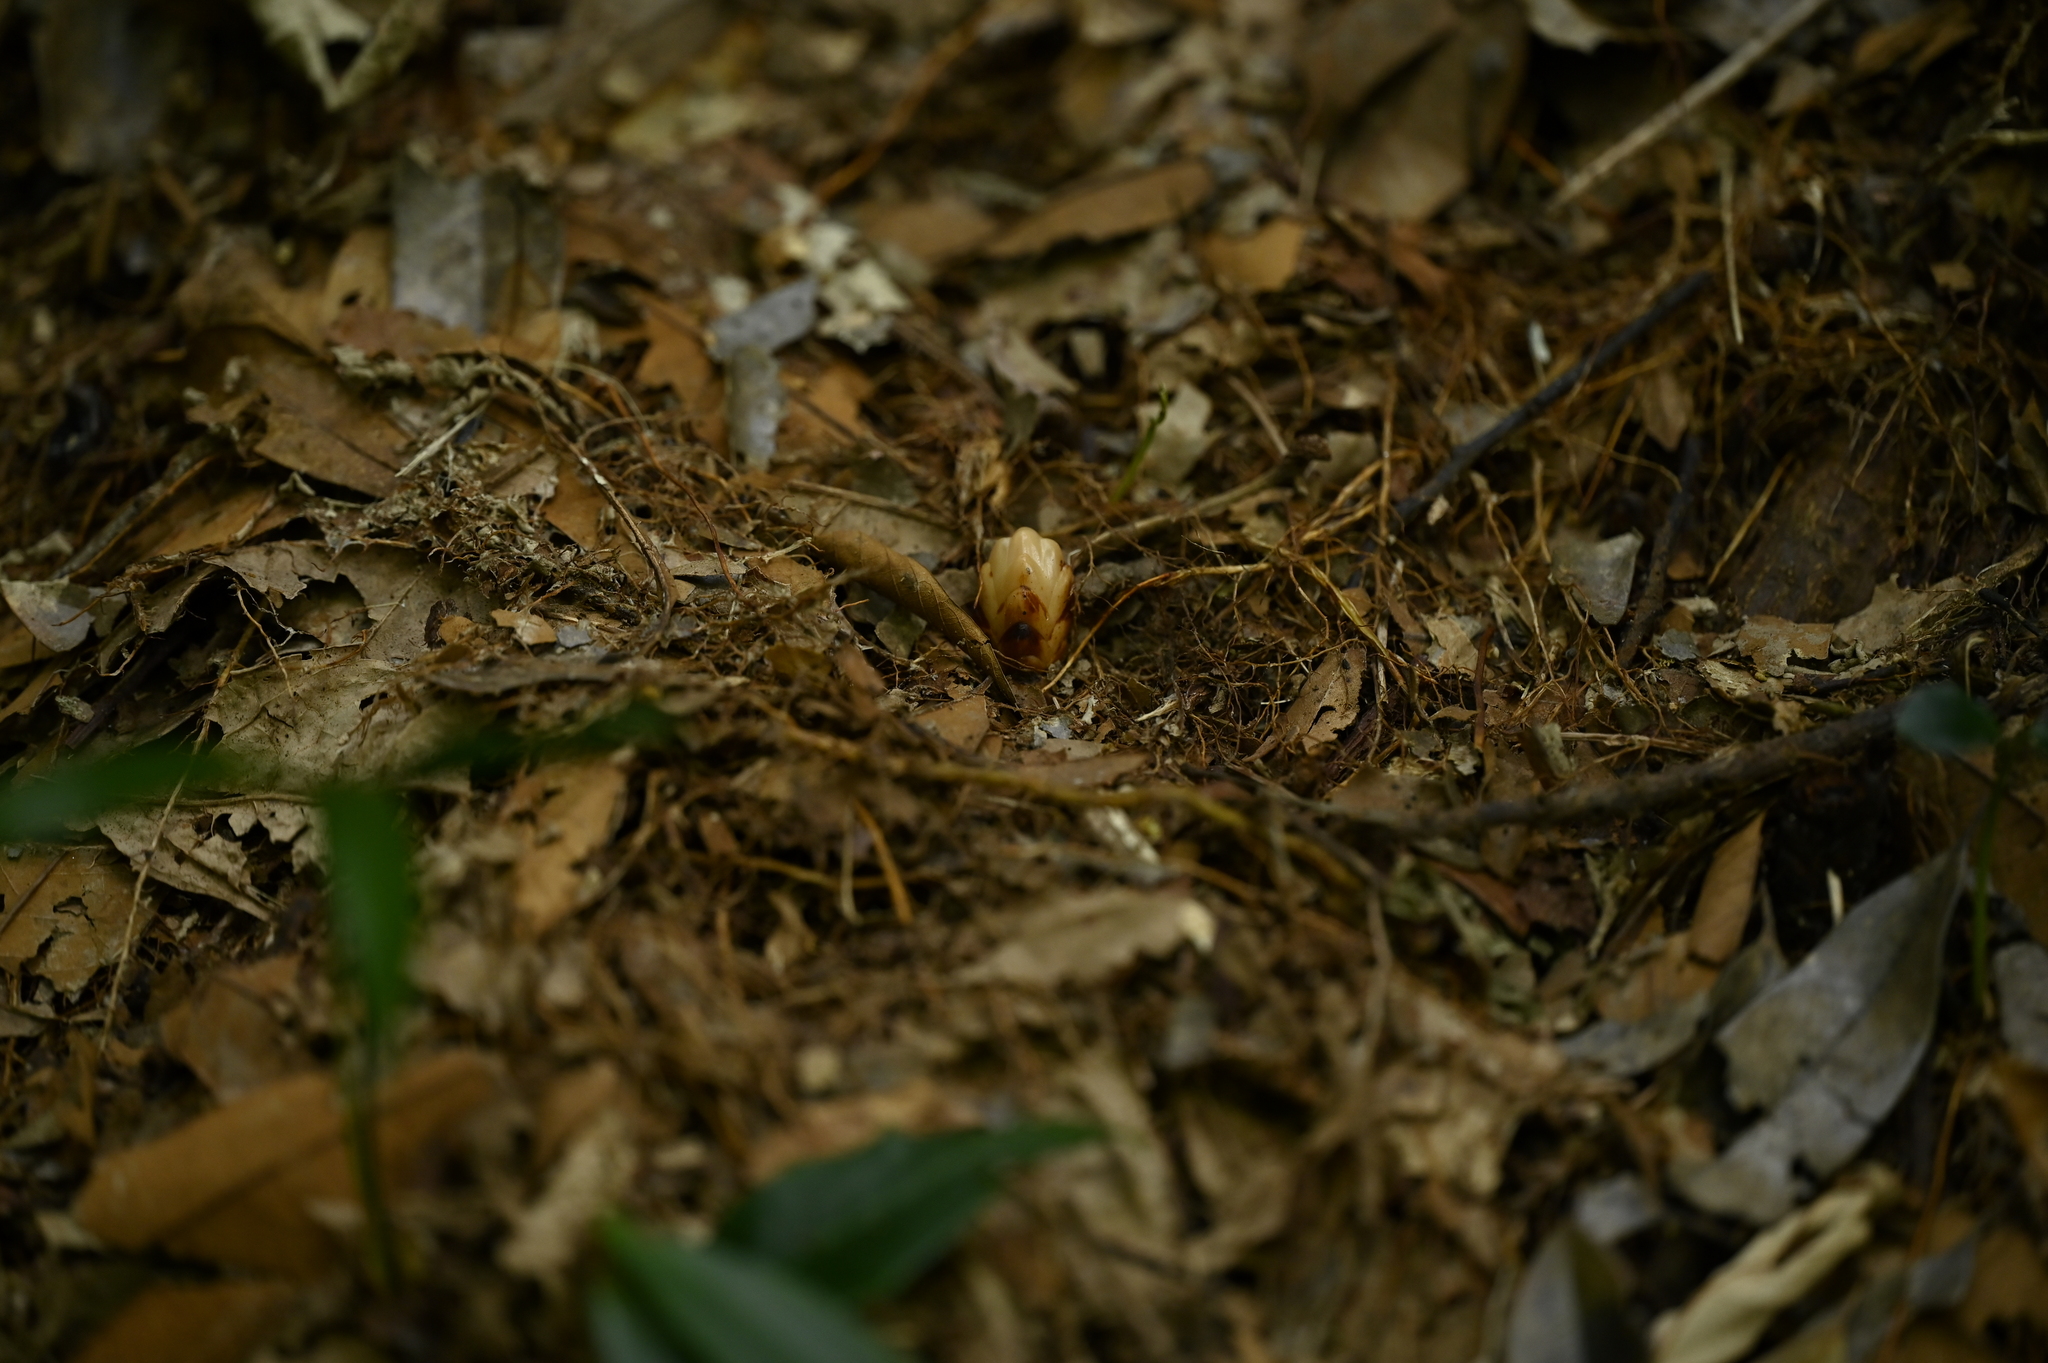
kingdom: Plantae
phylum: Tracheophyta
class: Magnoliopsida
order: Ericales
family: Mitrastemonaceae
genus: Mitrastemon
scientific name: Mitrastemon yamamotoi
